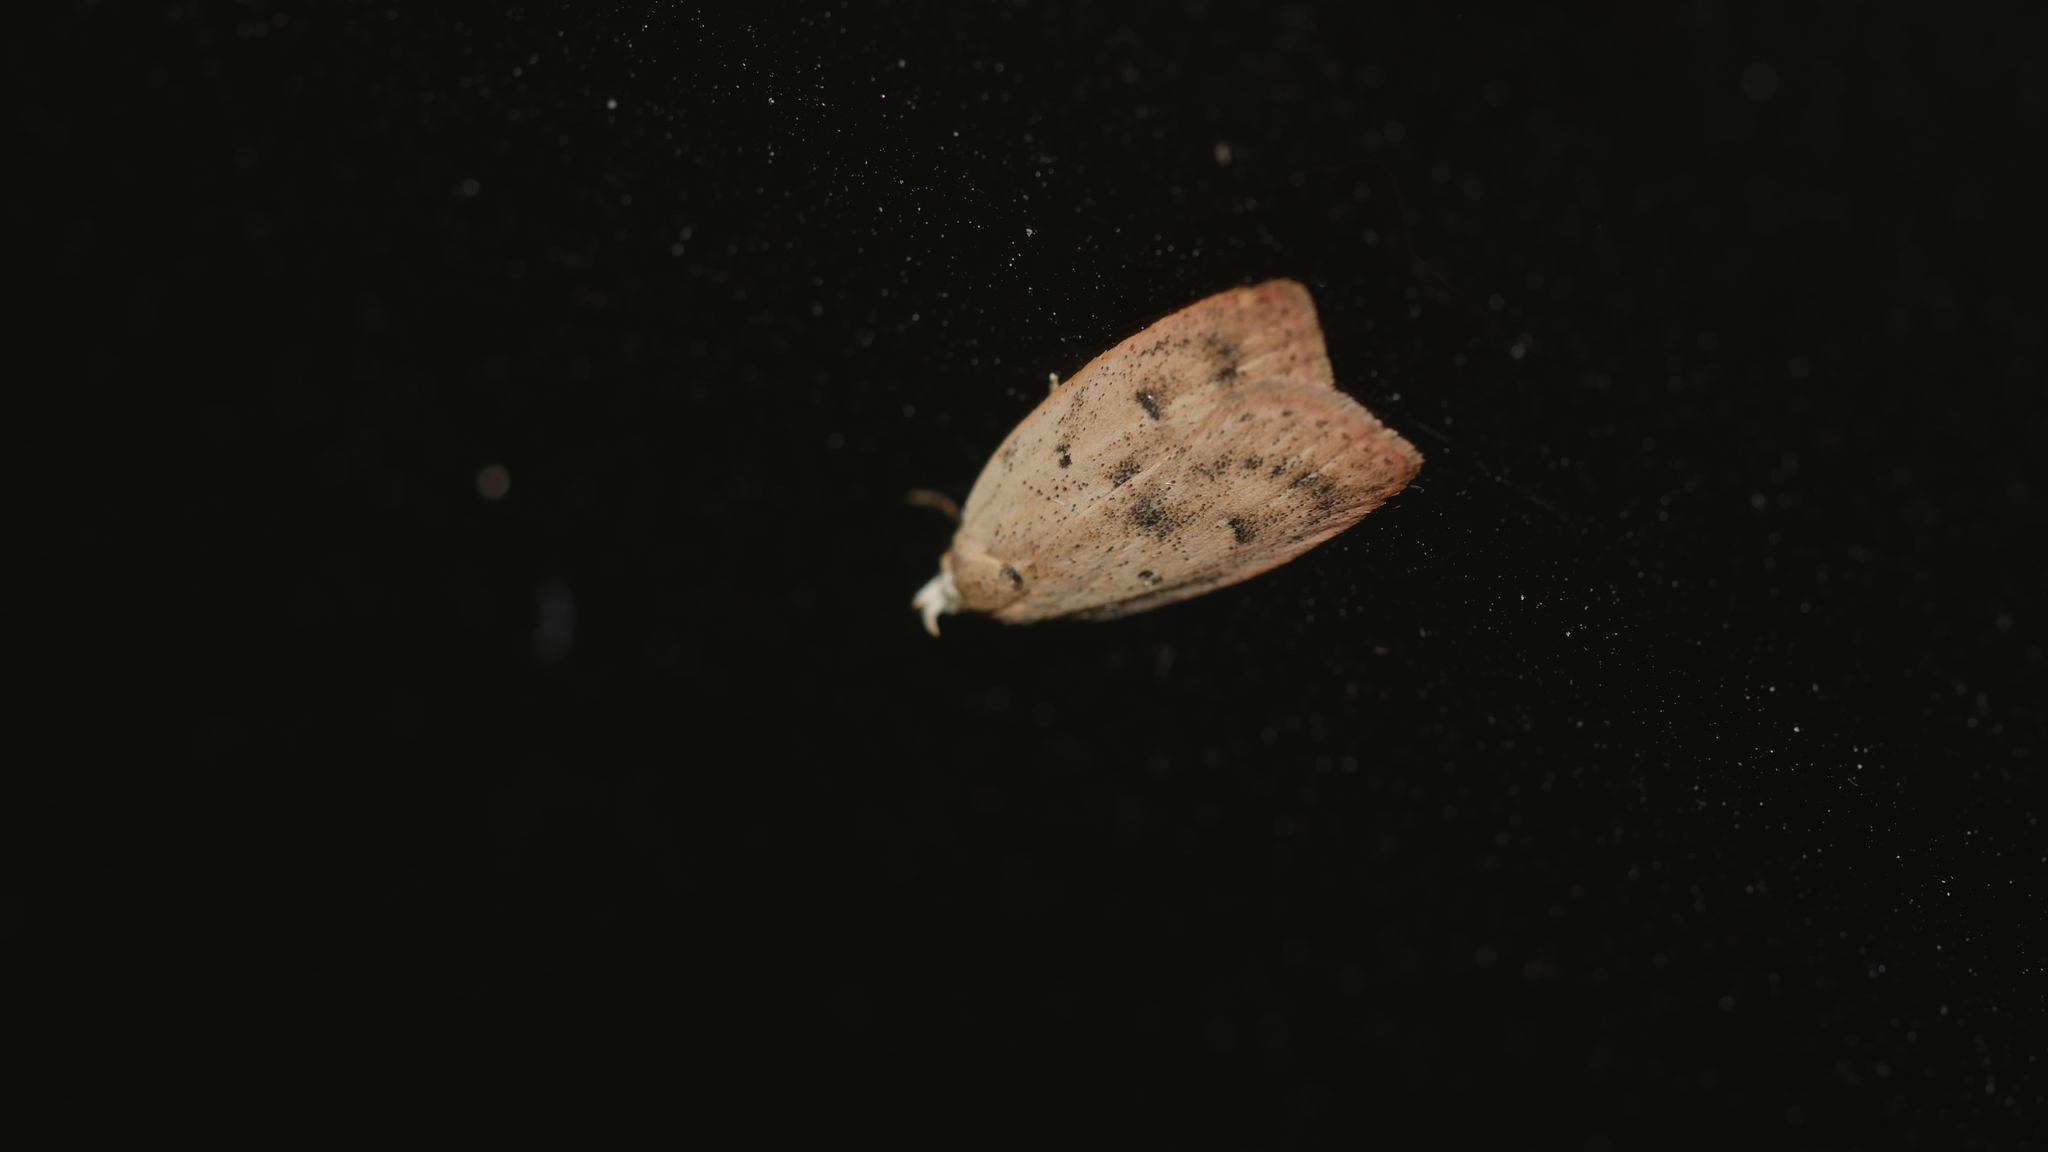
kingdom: Animalia
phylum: Arthropoda
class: Insecta
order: Lepidoptera
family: Peleopodidae
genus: Machimia
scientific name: Machimia tentoriferella
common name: Gold-striped leaftier moth
